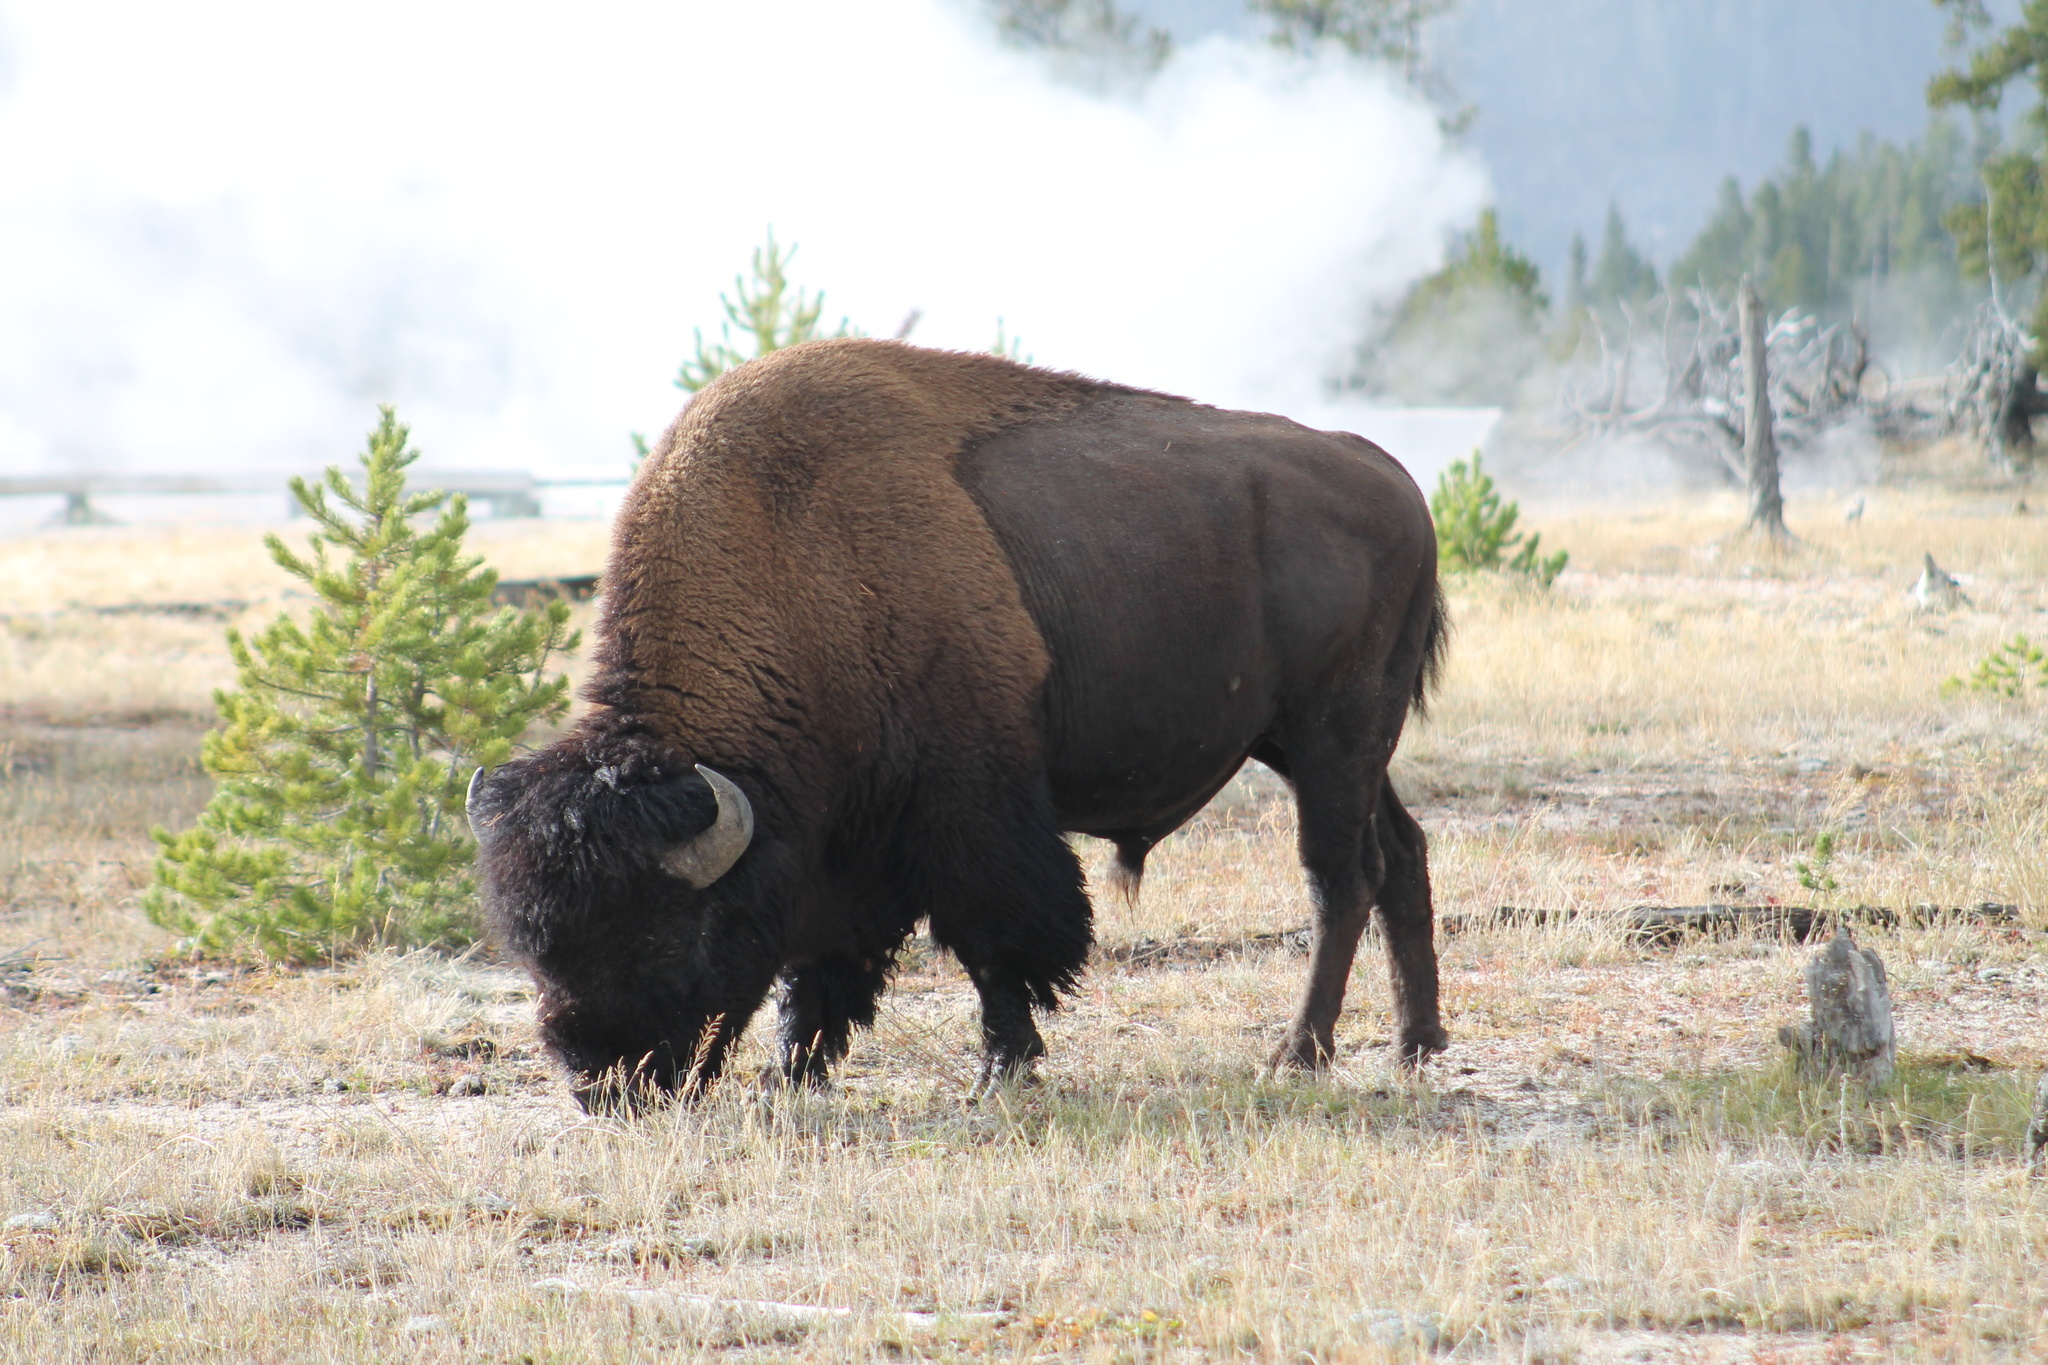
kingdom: Animalia
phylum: Chordata
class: Mammalia
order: Artiodactyla
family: Bovidae
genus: Bison
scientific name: Bison bison
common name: American bison
